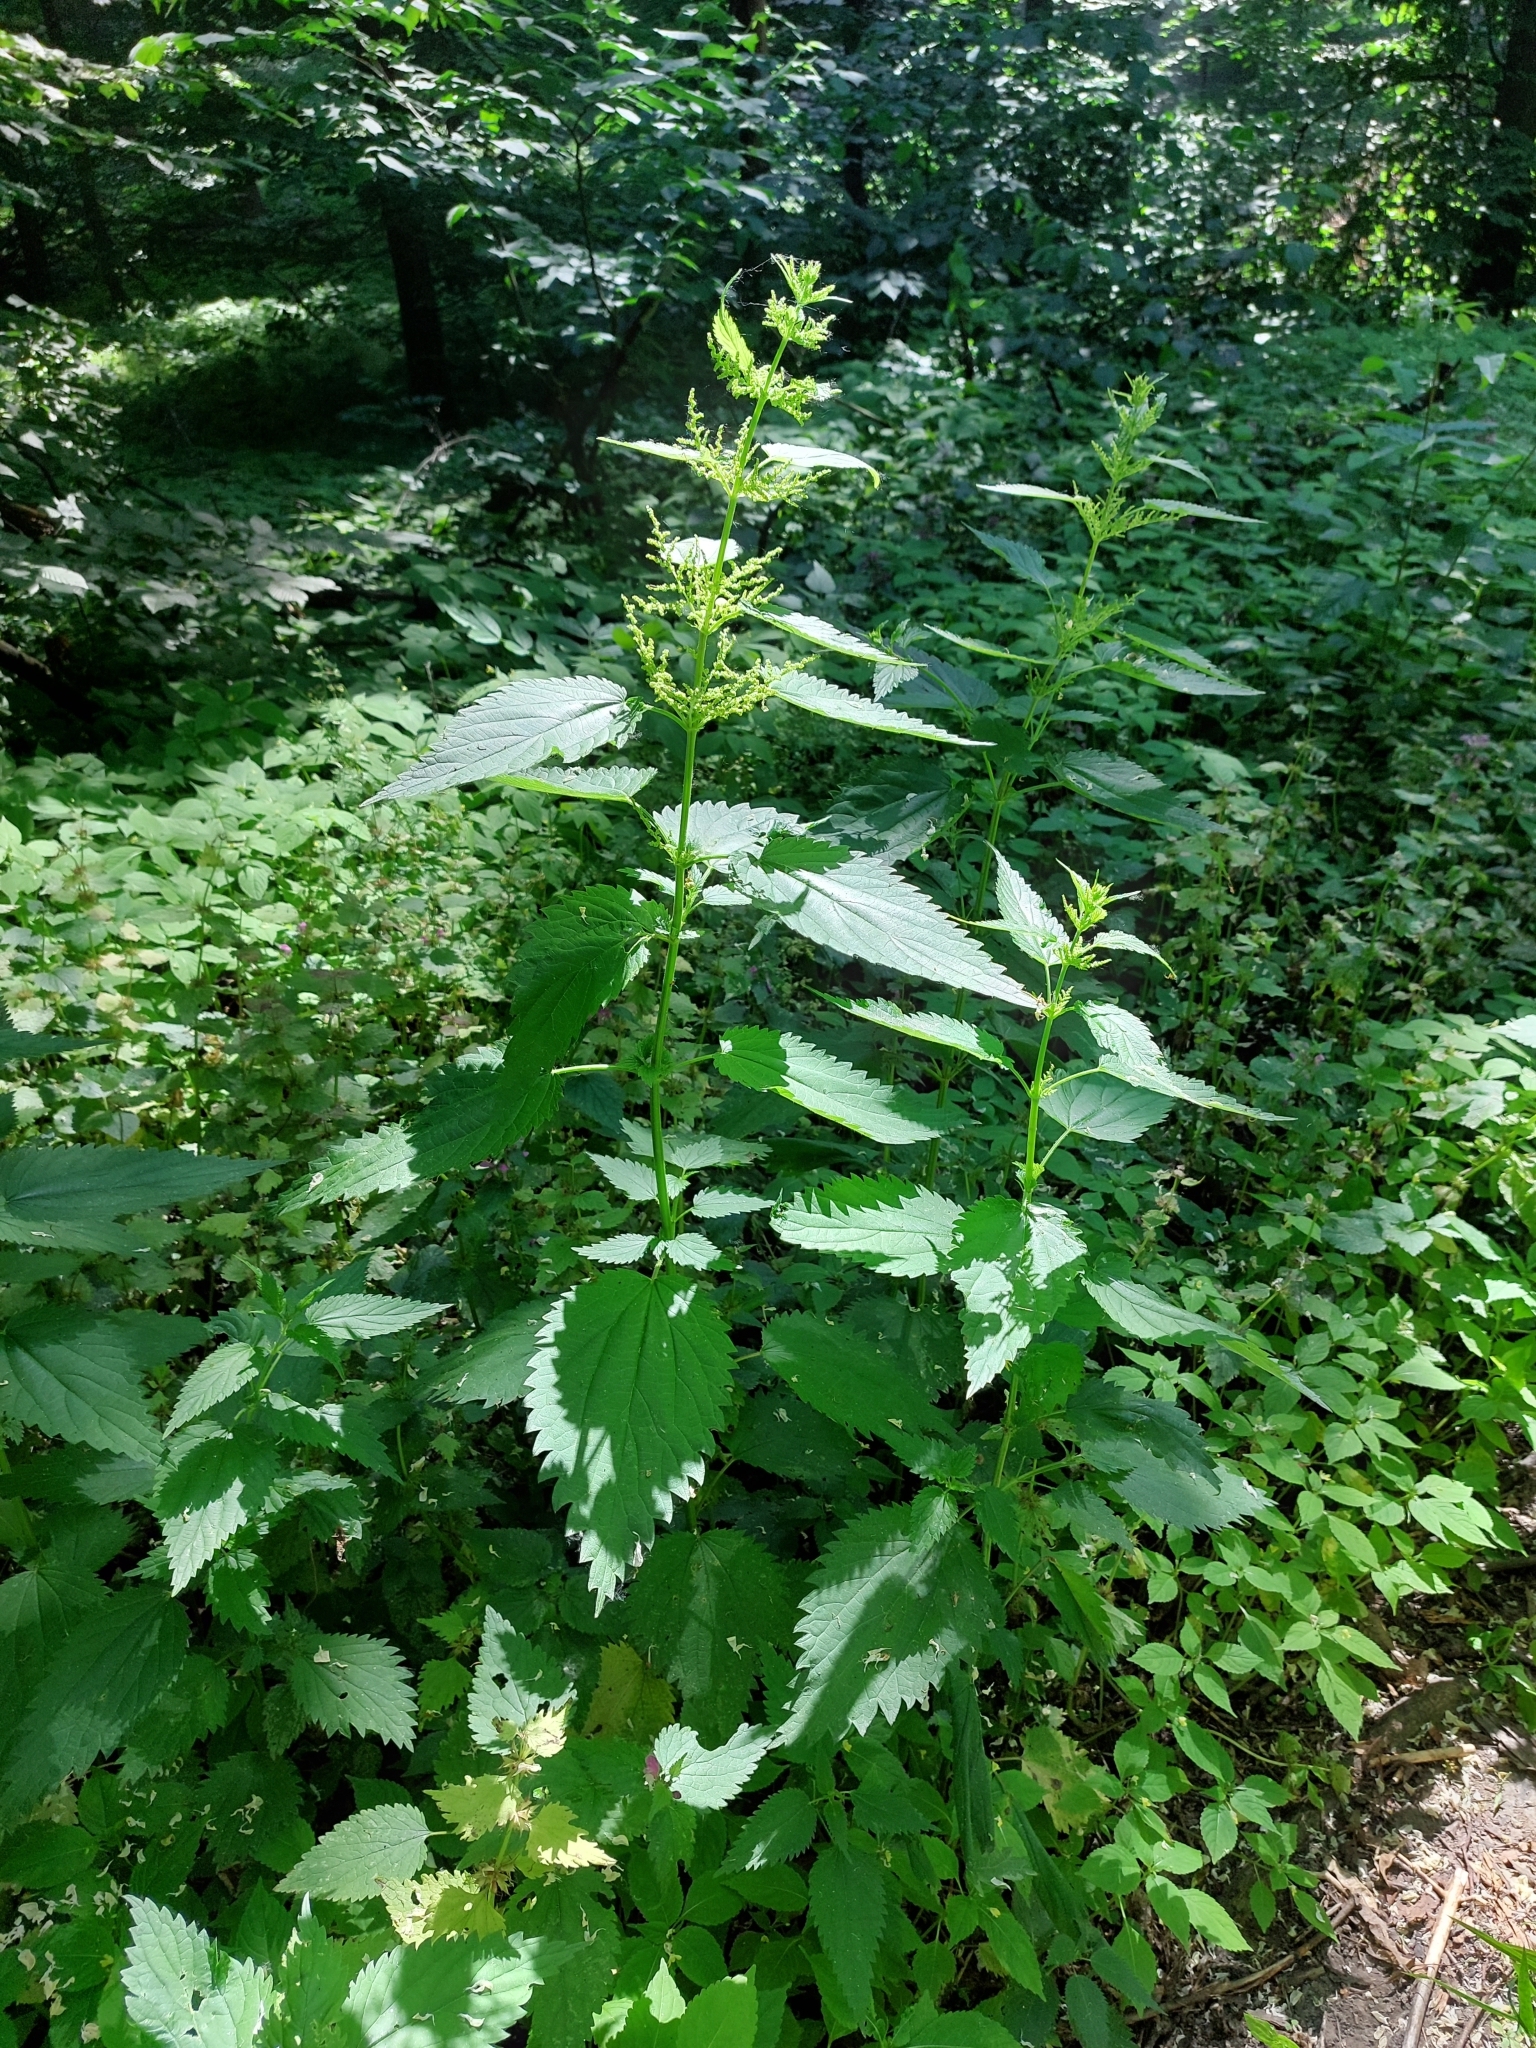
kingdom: Plantae
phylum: Tracheophyta
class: Magnoliopsida
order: Rosales
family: Urticaceae
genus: Urtica
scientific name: Urtica dioica
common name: Common nettle
